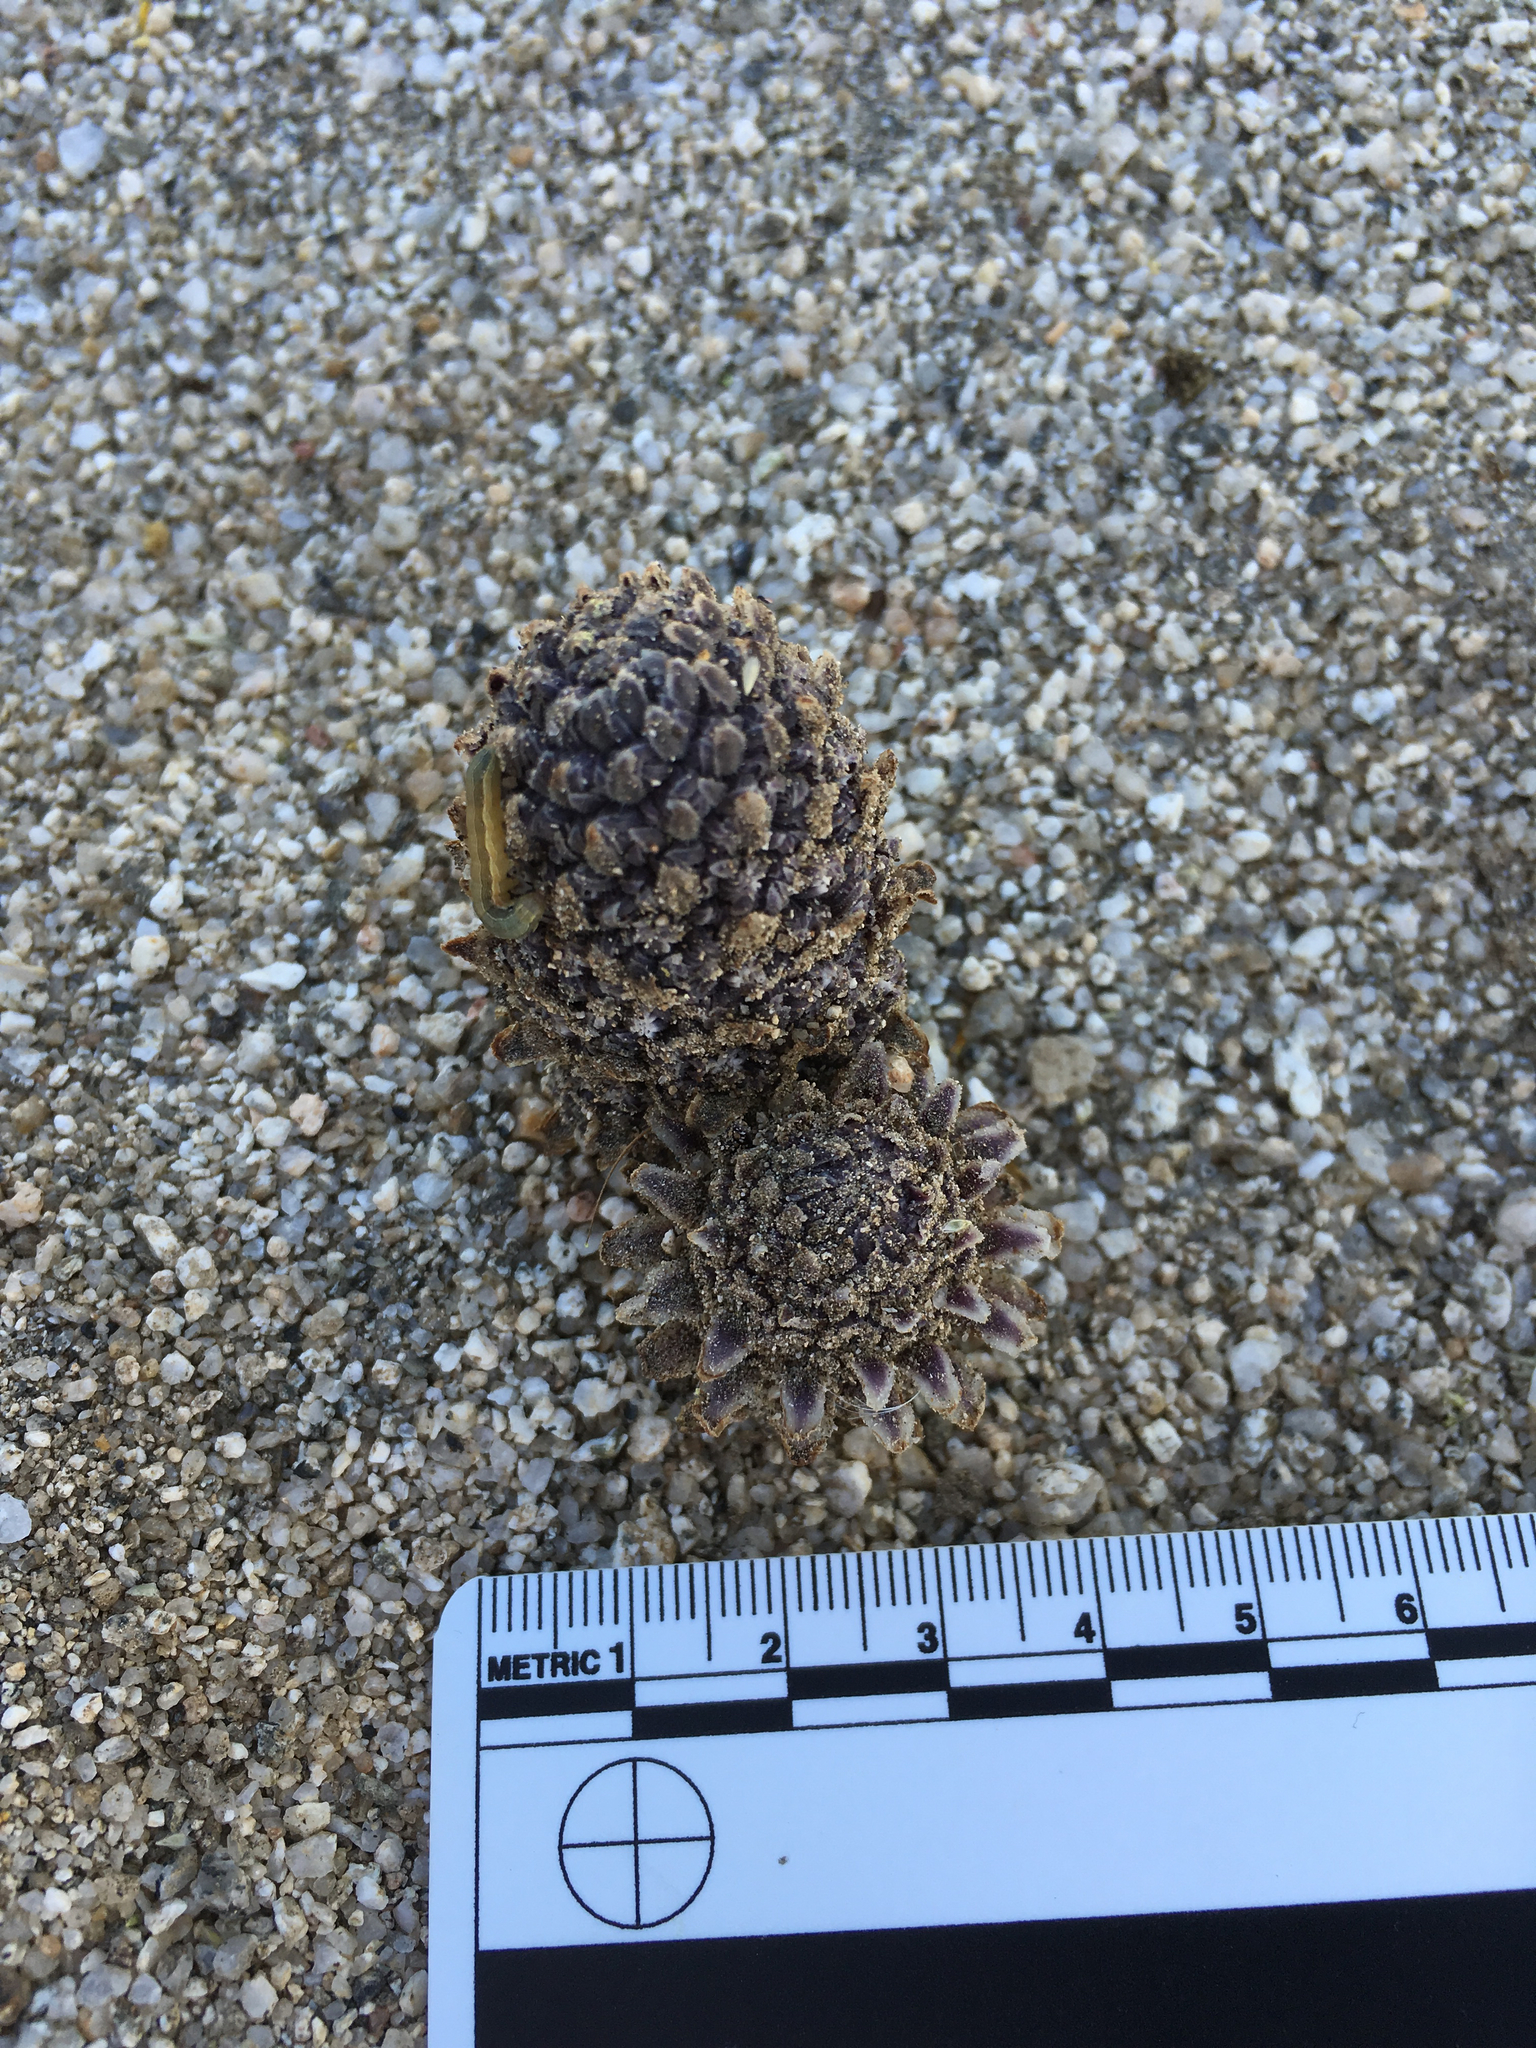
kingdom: Plantae
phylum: Tracheophyta
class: Magnoliopsida
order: Boraginales
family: Lennoaceae
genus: Pholisma
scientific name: Pholisma arenarium
